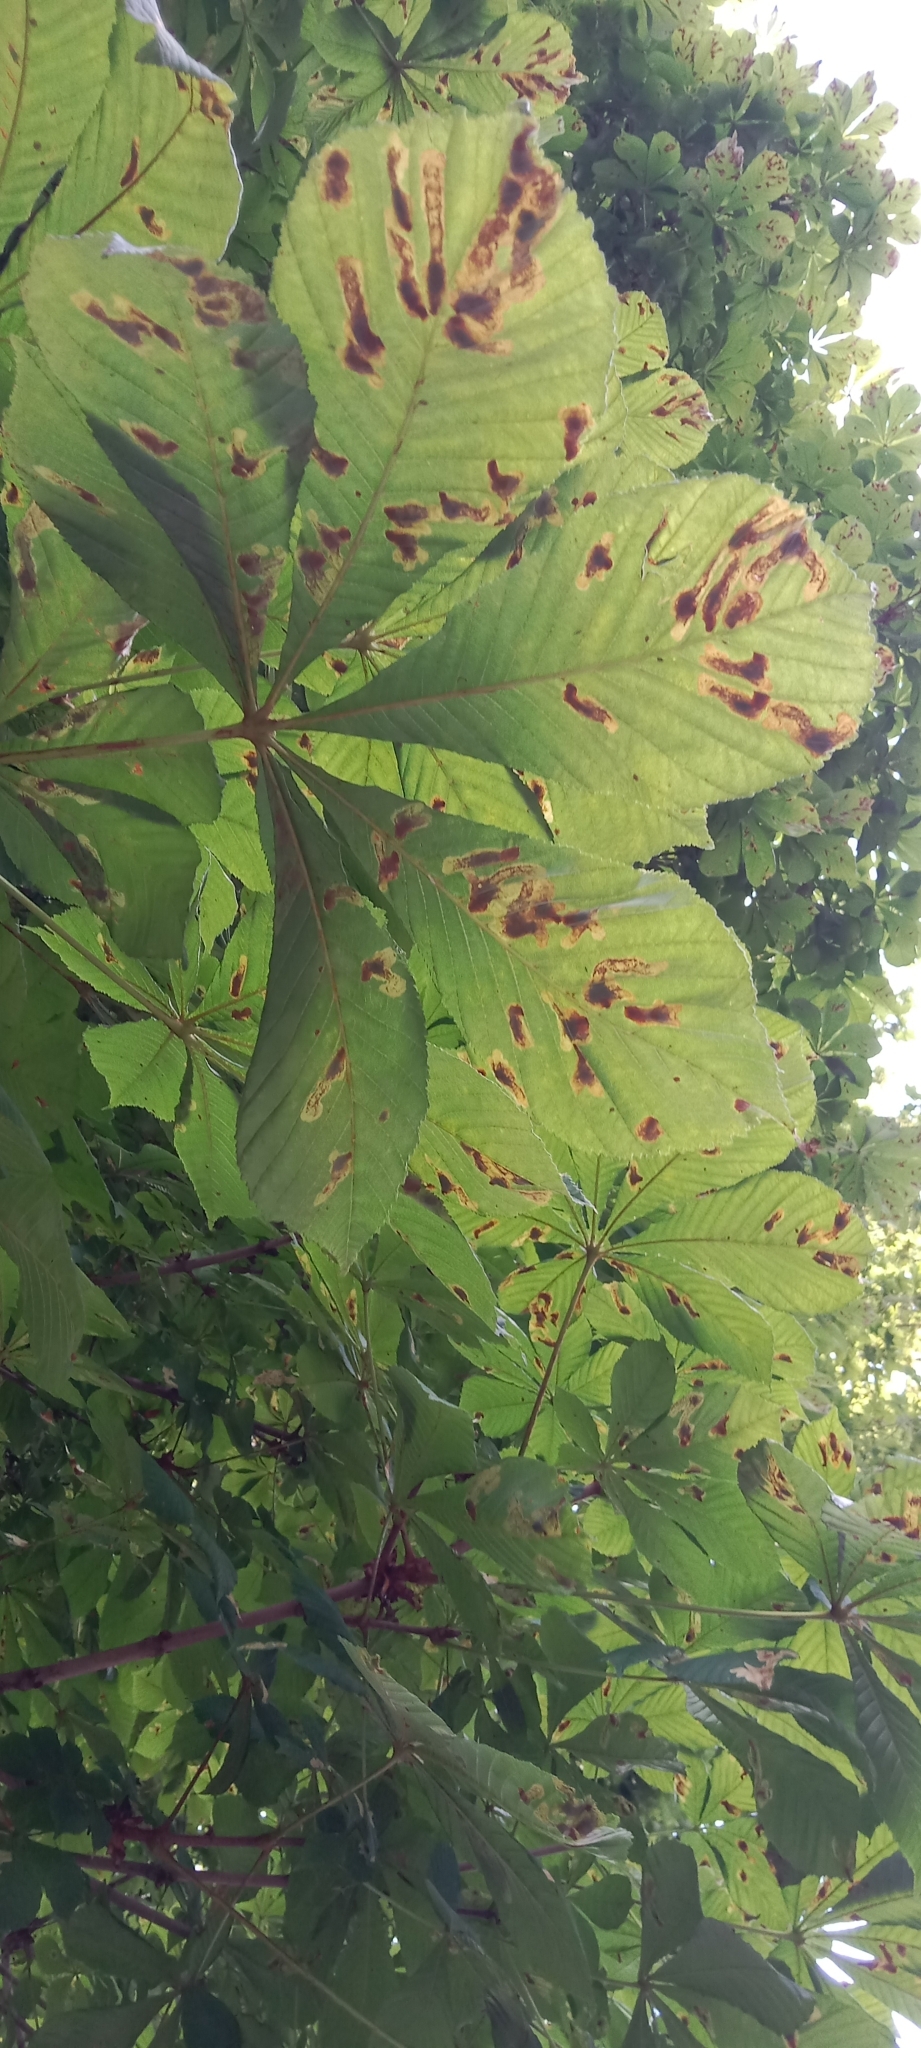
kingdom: Animalia
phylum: Arthropoda
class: Insecta
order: Lepidoptera
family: Gracillariidae
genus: Cameraria
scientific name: Cameraria ohridella
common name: Horse-chestnut leaf-miner
